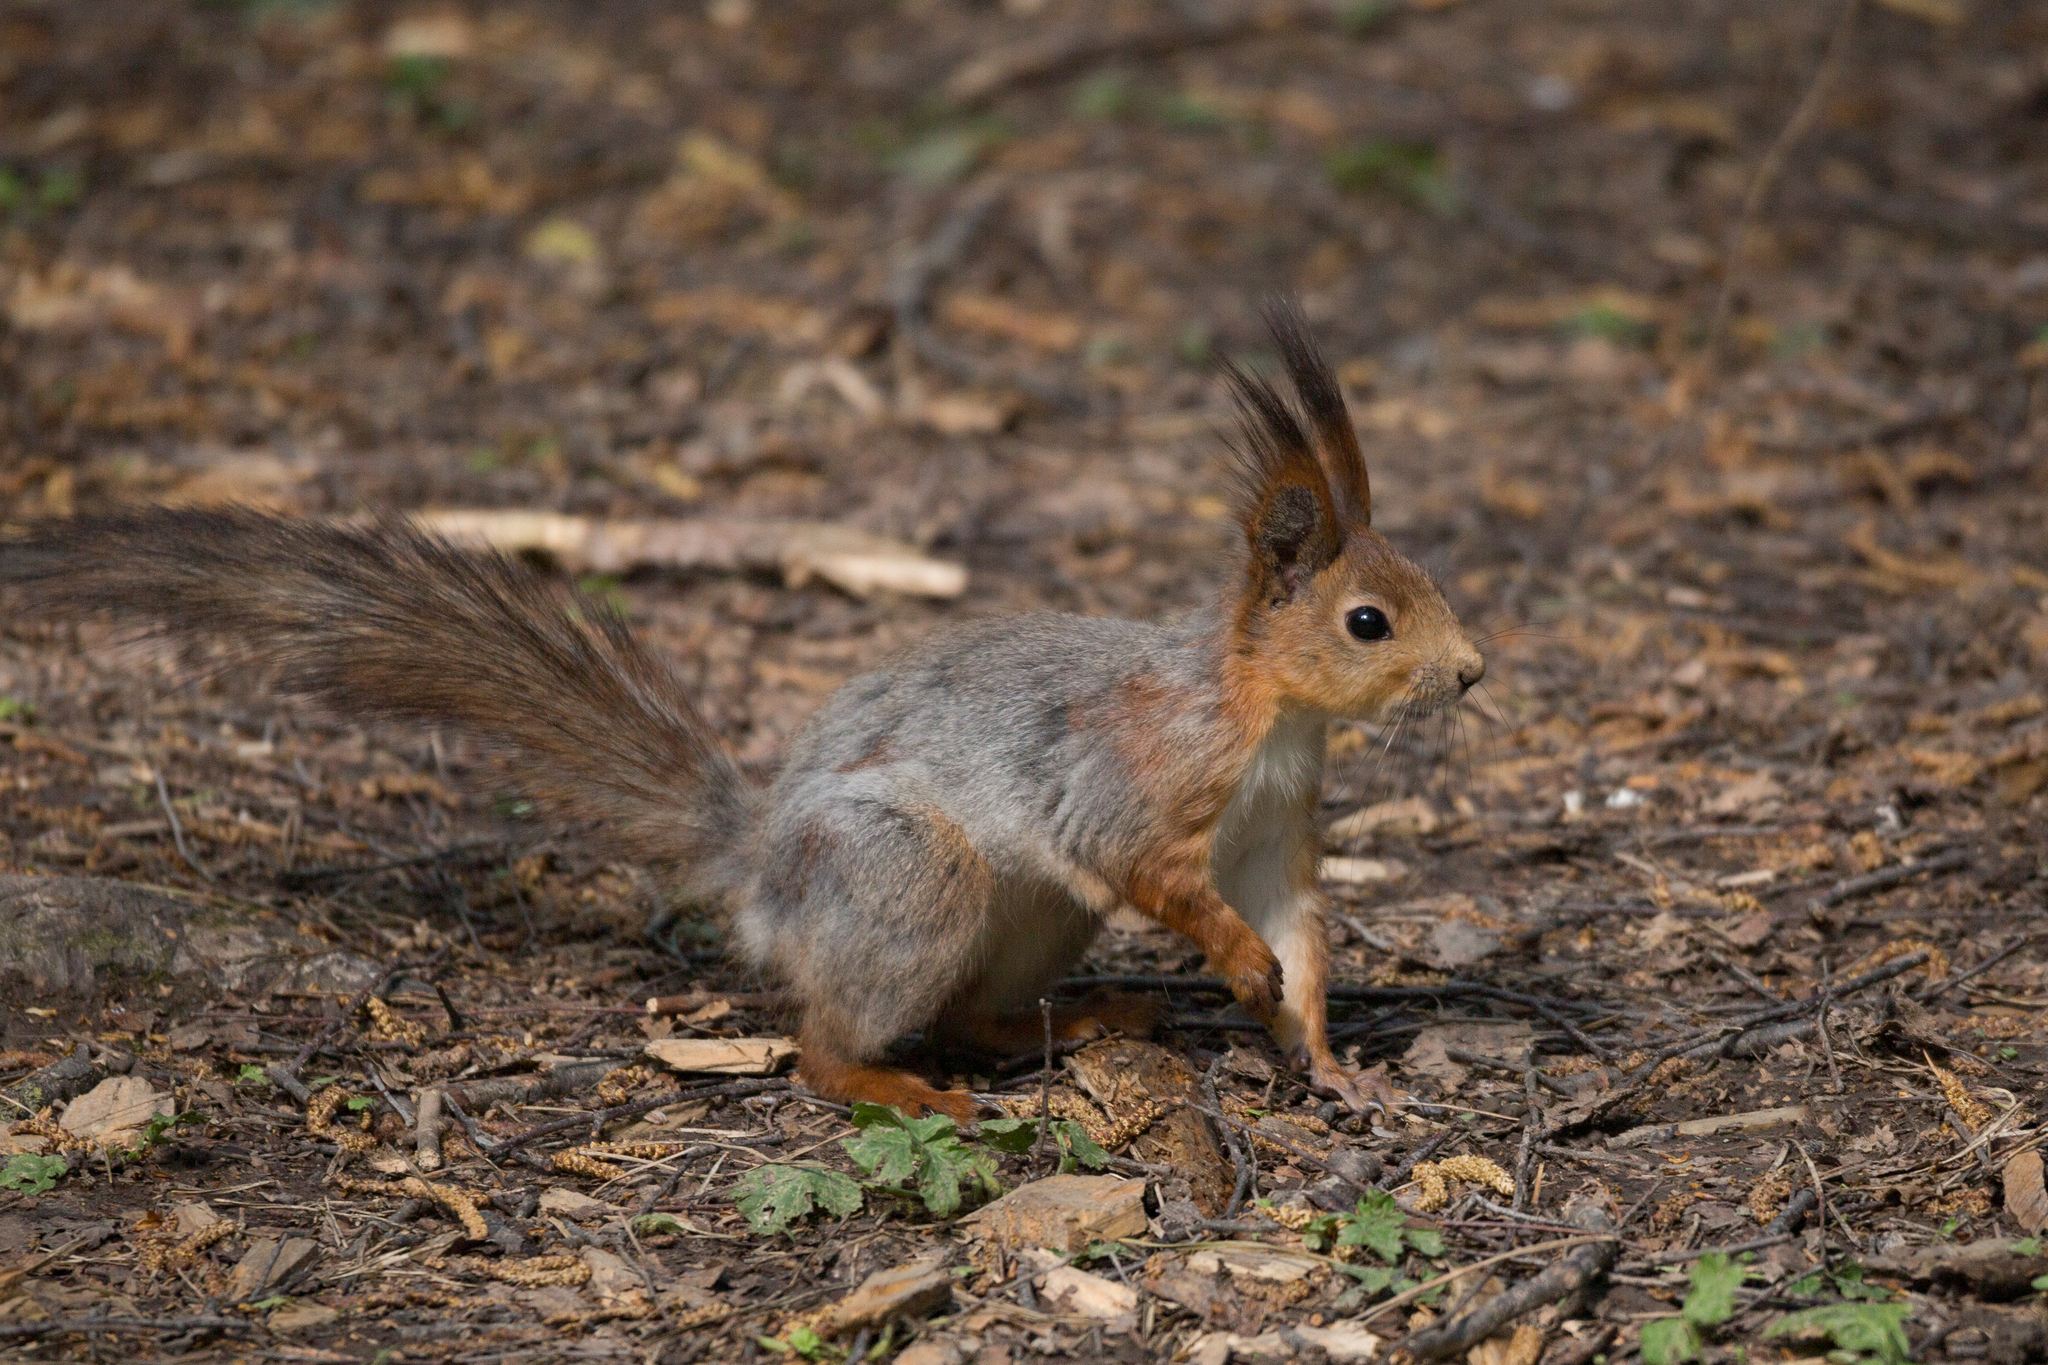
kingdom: Animalia
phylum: Chordata
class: Mammalia
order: Rodentia
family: Sciuridae
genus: Sciurus
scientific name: Sciurus vulgaris
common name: Eurasian red squirrel
